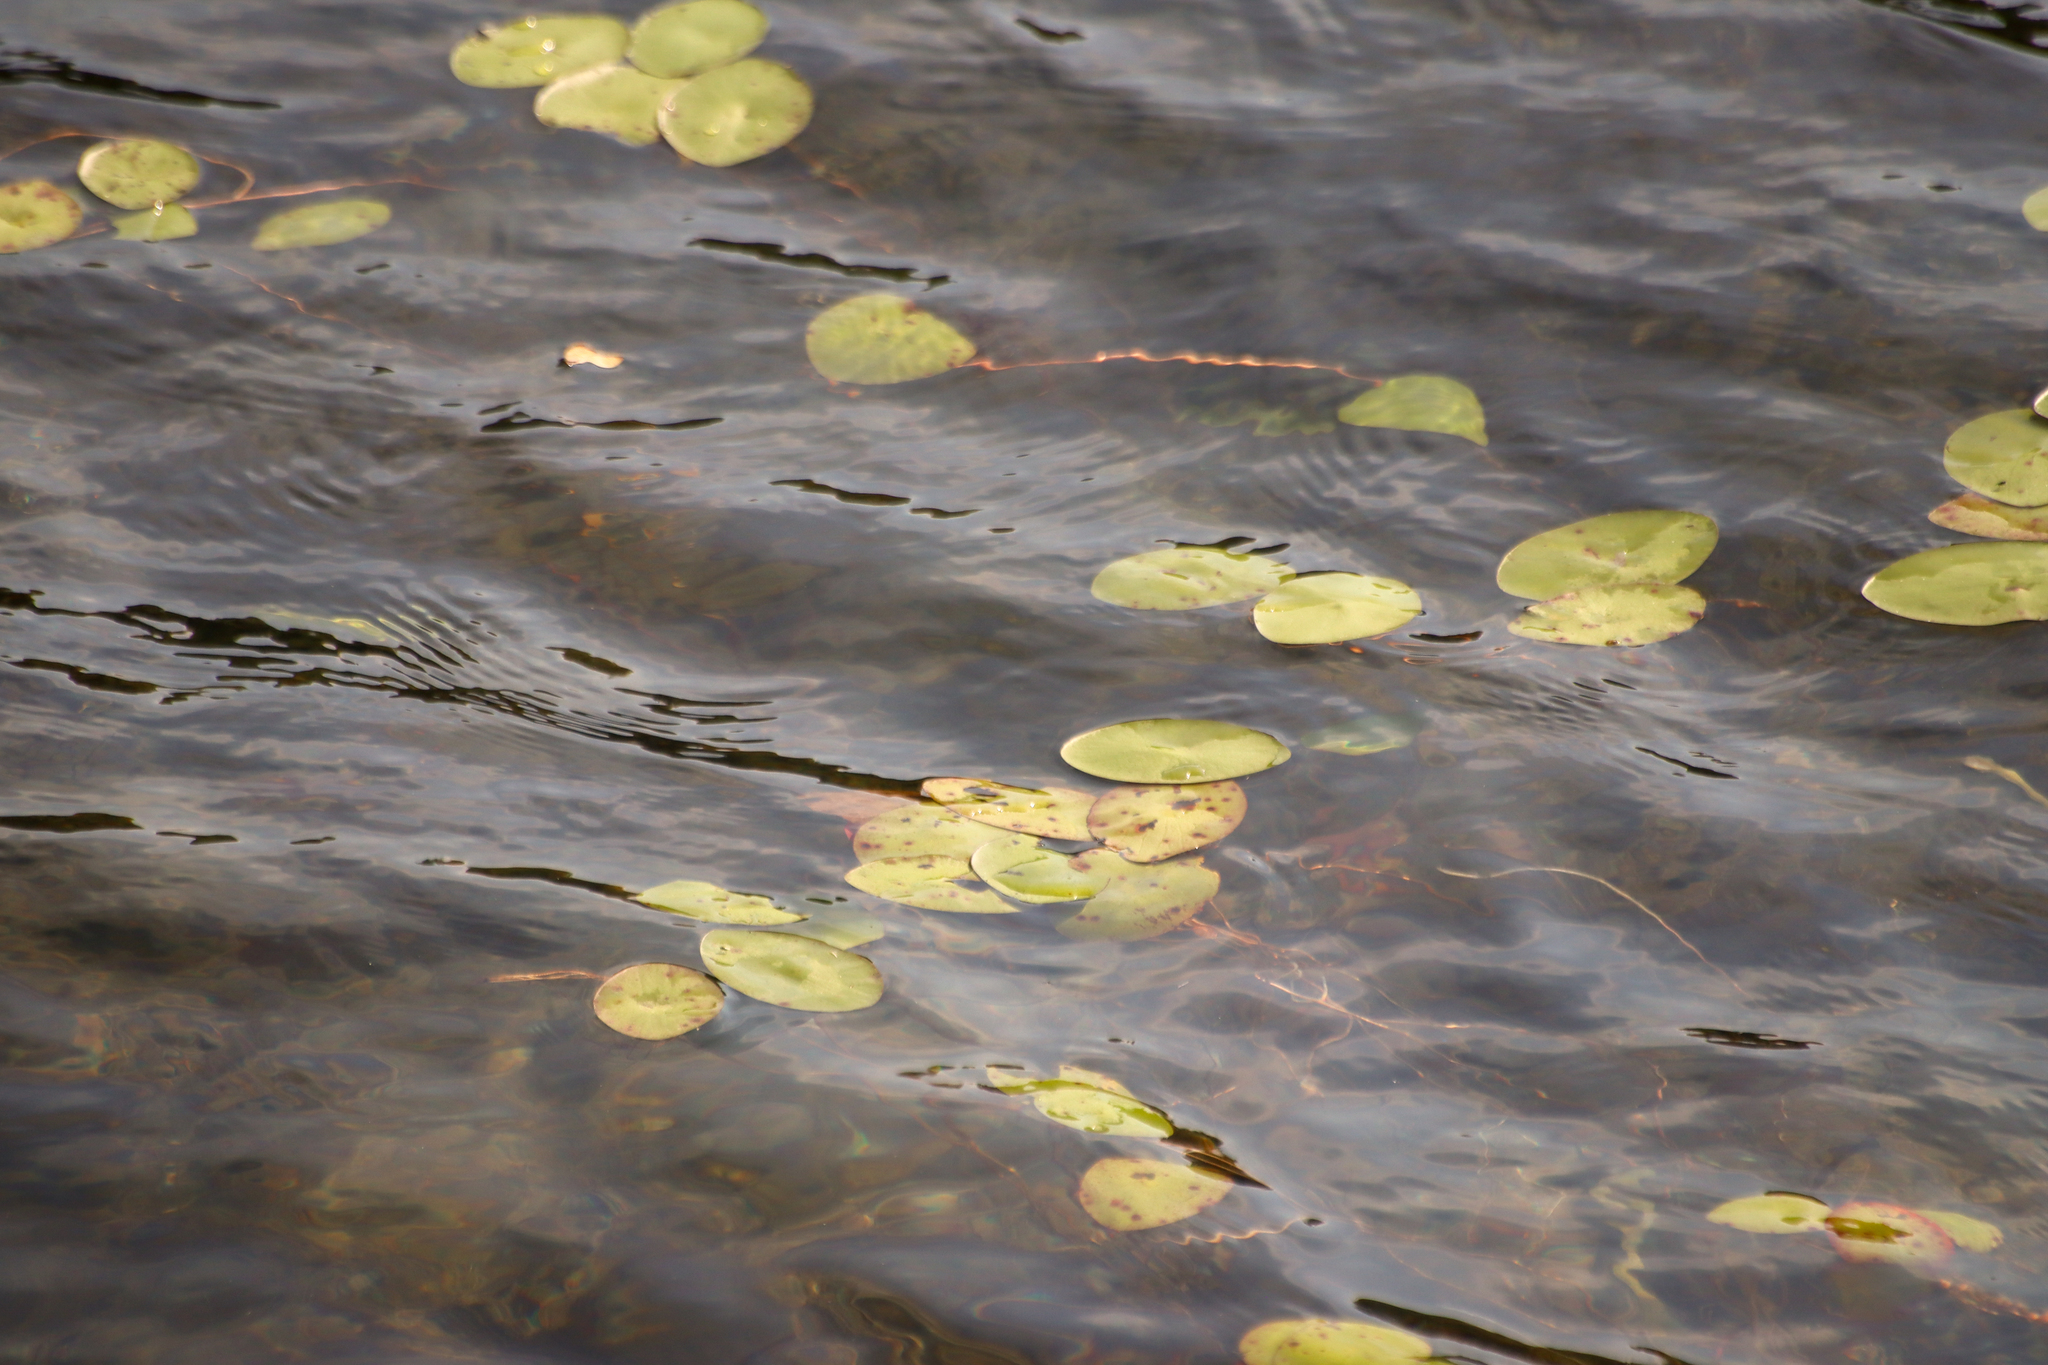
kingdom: Plantae
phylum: Tracheophyta
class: Magnoliopsida
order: Nymphaeales
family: Cabombaceae
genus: Brasenia
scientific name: Brasenia schreberi
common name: Water-shield
